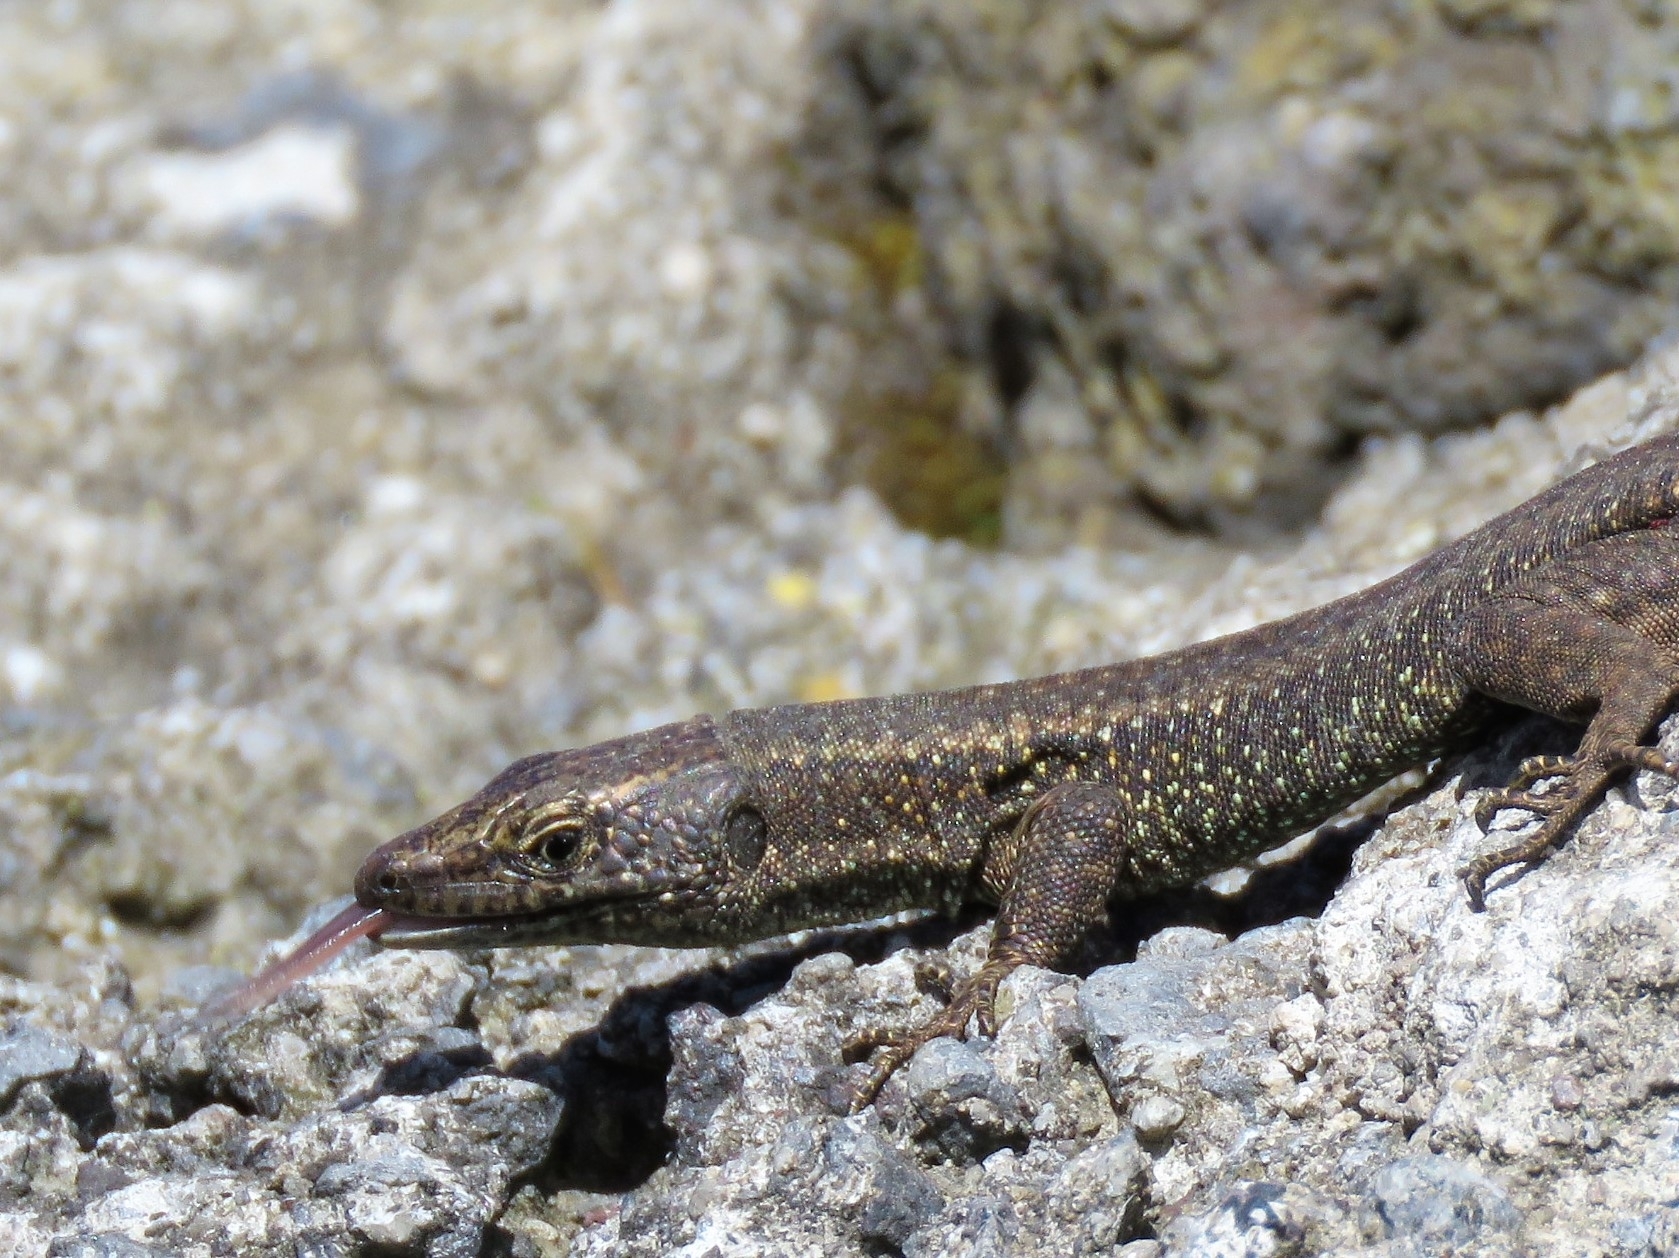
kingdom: Animalia
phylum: Chordata
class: Squamata
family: Lacertidae
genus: Teira
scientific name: Teira dugesii
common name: Madeira lizard
